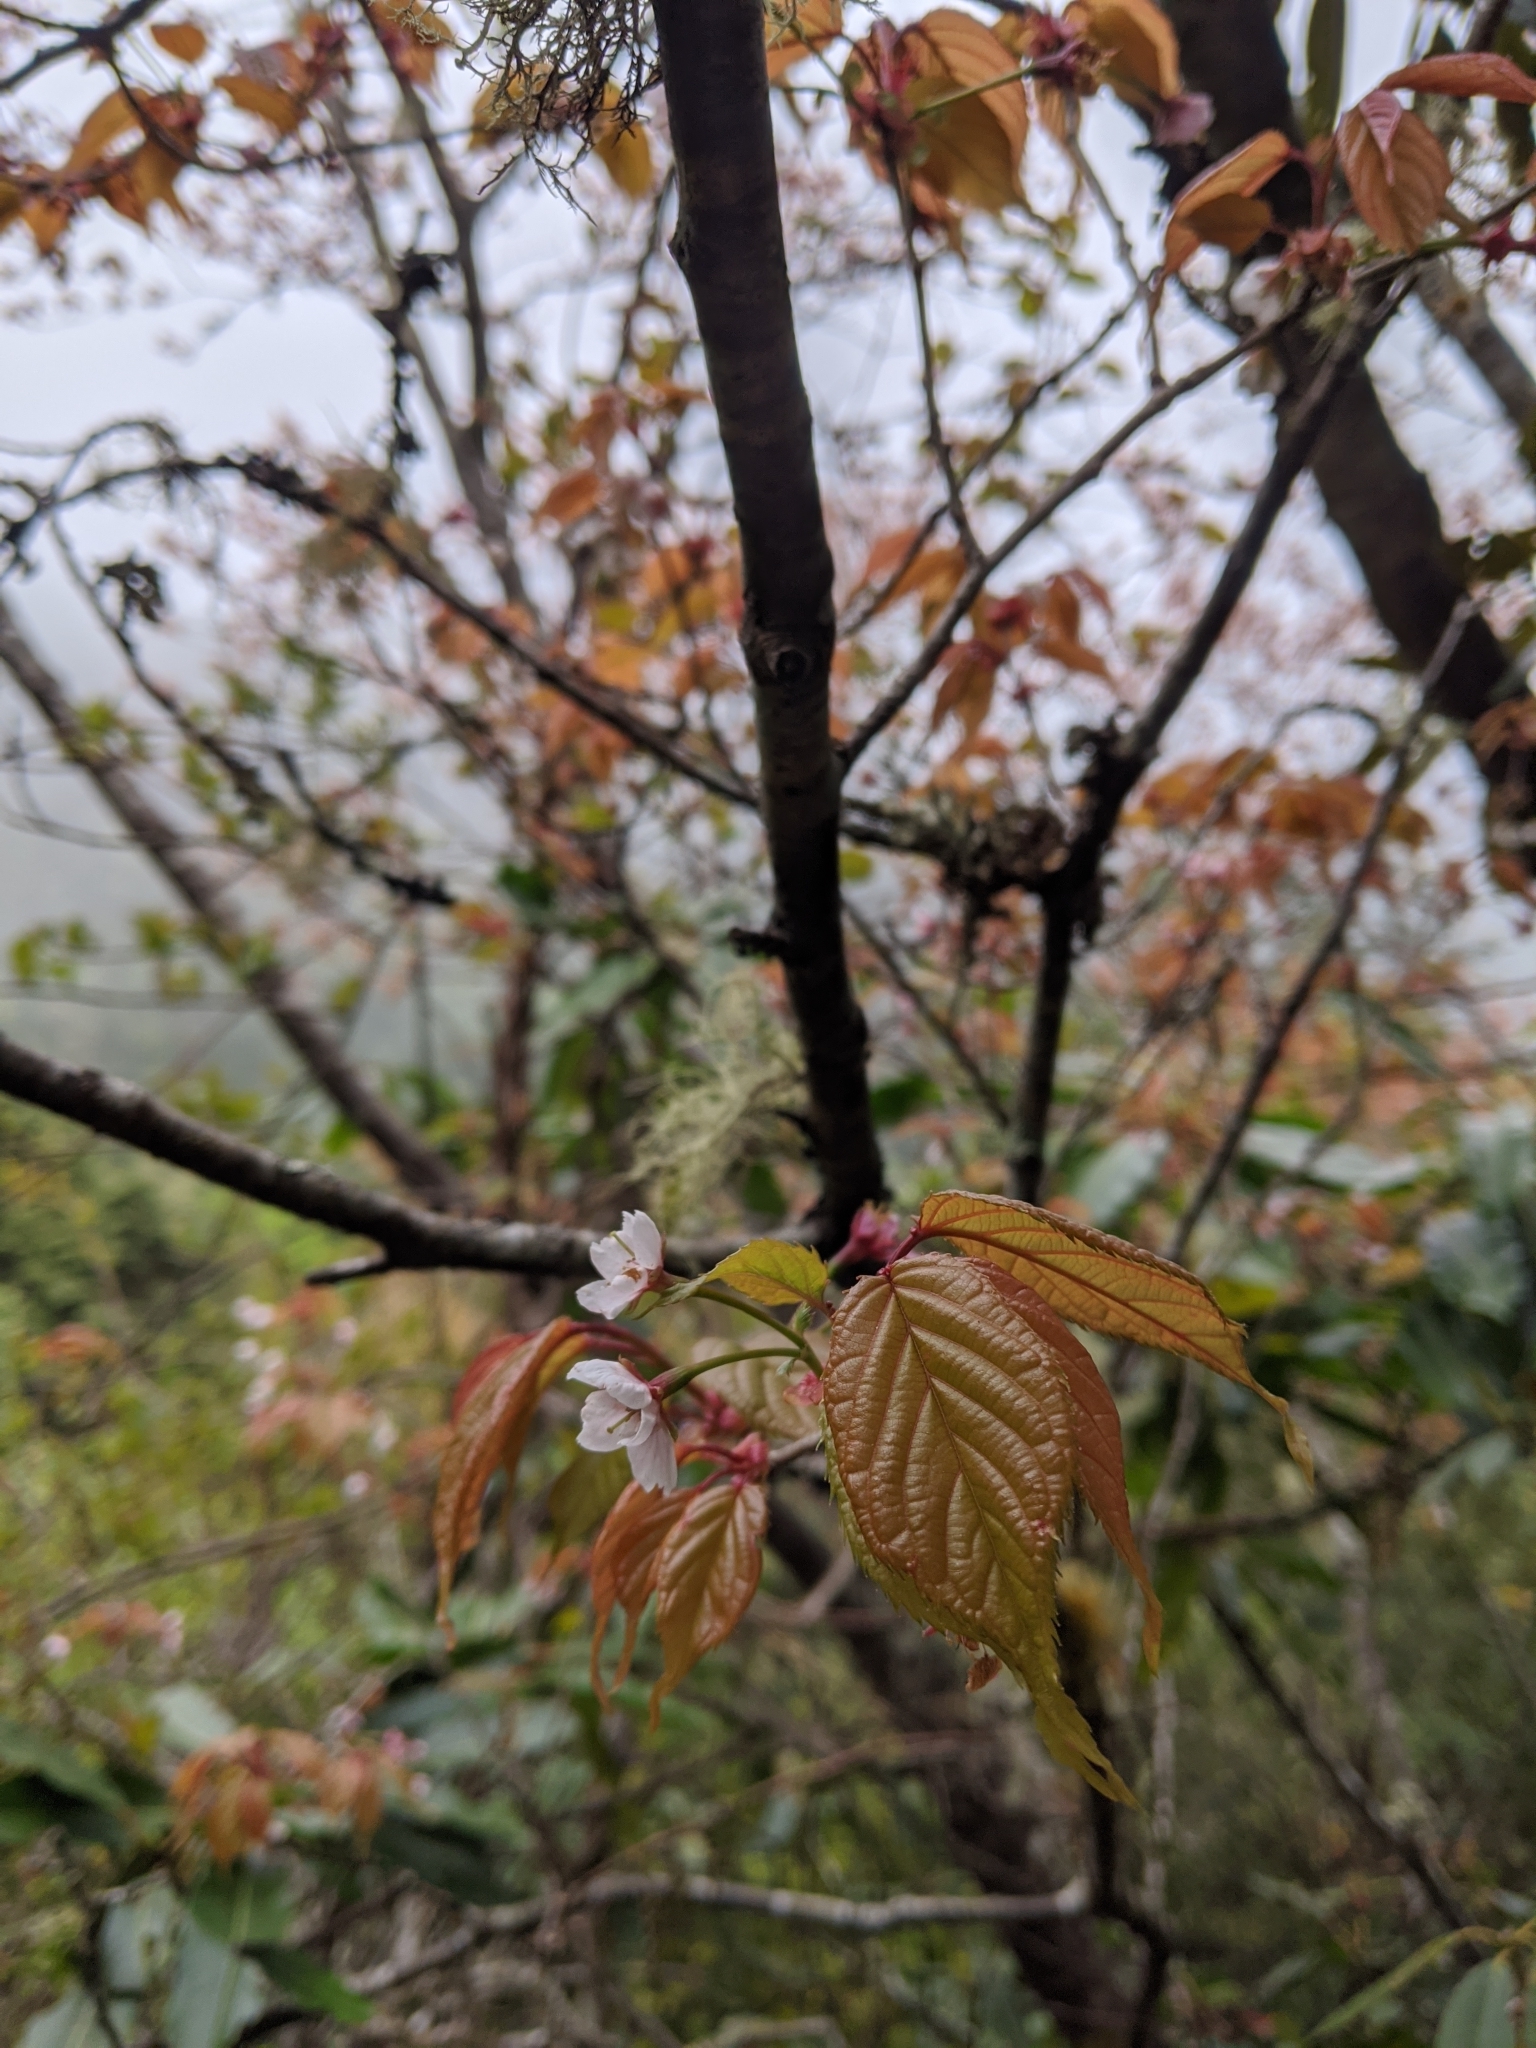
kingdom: Plantae
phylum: Tracheophyta
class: Magnoliopsida
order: Rosales
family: Rosaceae
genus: Prunus
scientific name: Prunus transarisanensis
